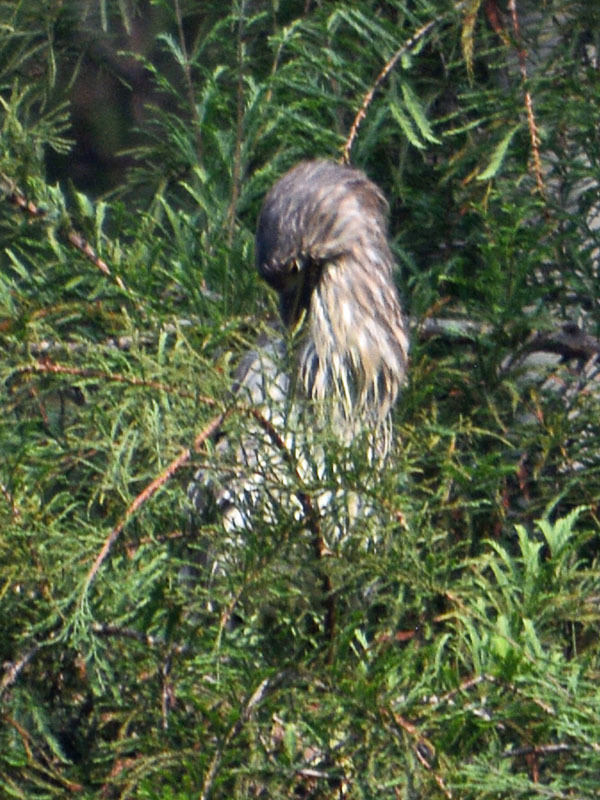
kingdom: Animalia
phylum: Chordata
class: Aves
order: Pelecaniformes
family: Ardeidae
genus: Nycticorax
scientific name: Nycticorax nycticorax
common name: Black-crowned night heron
